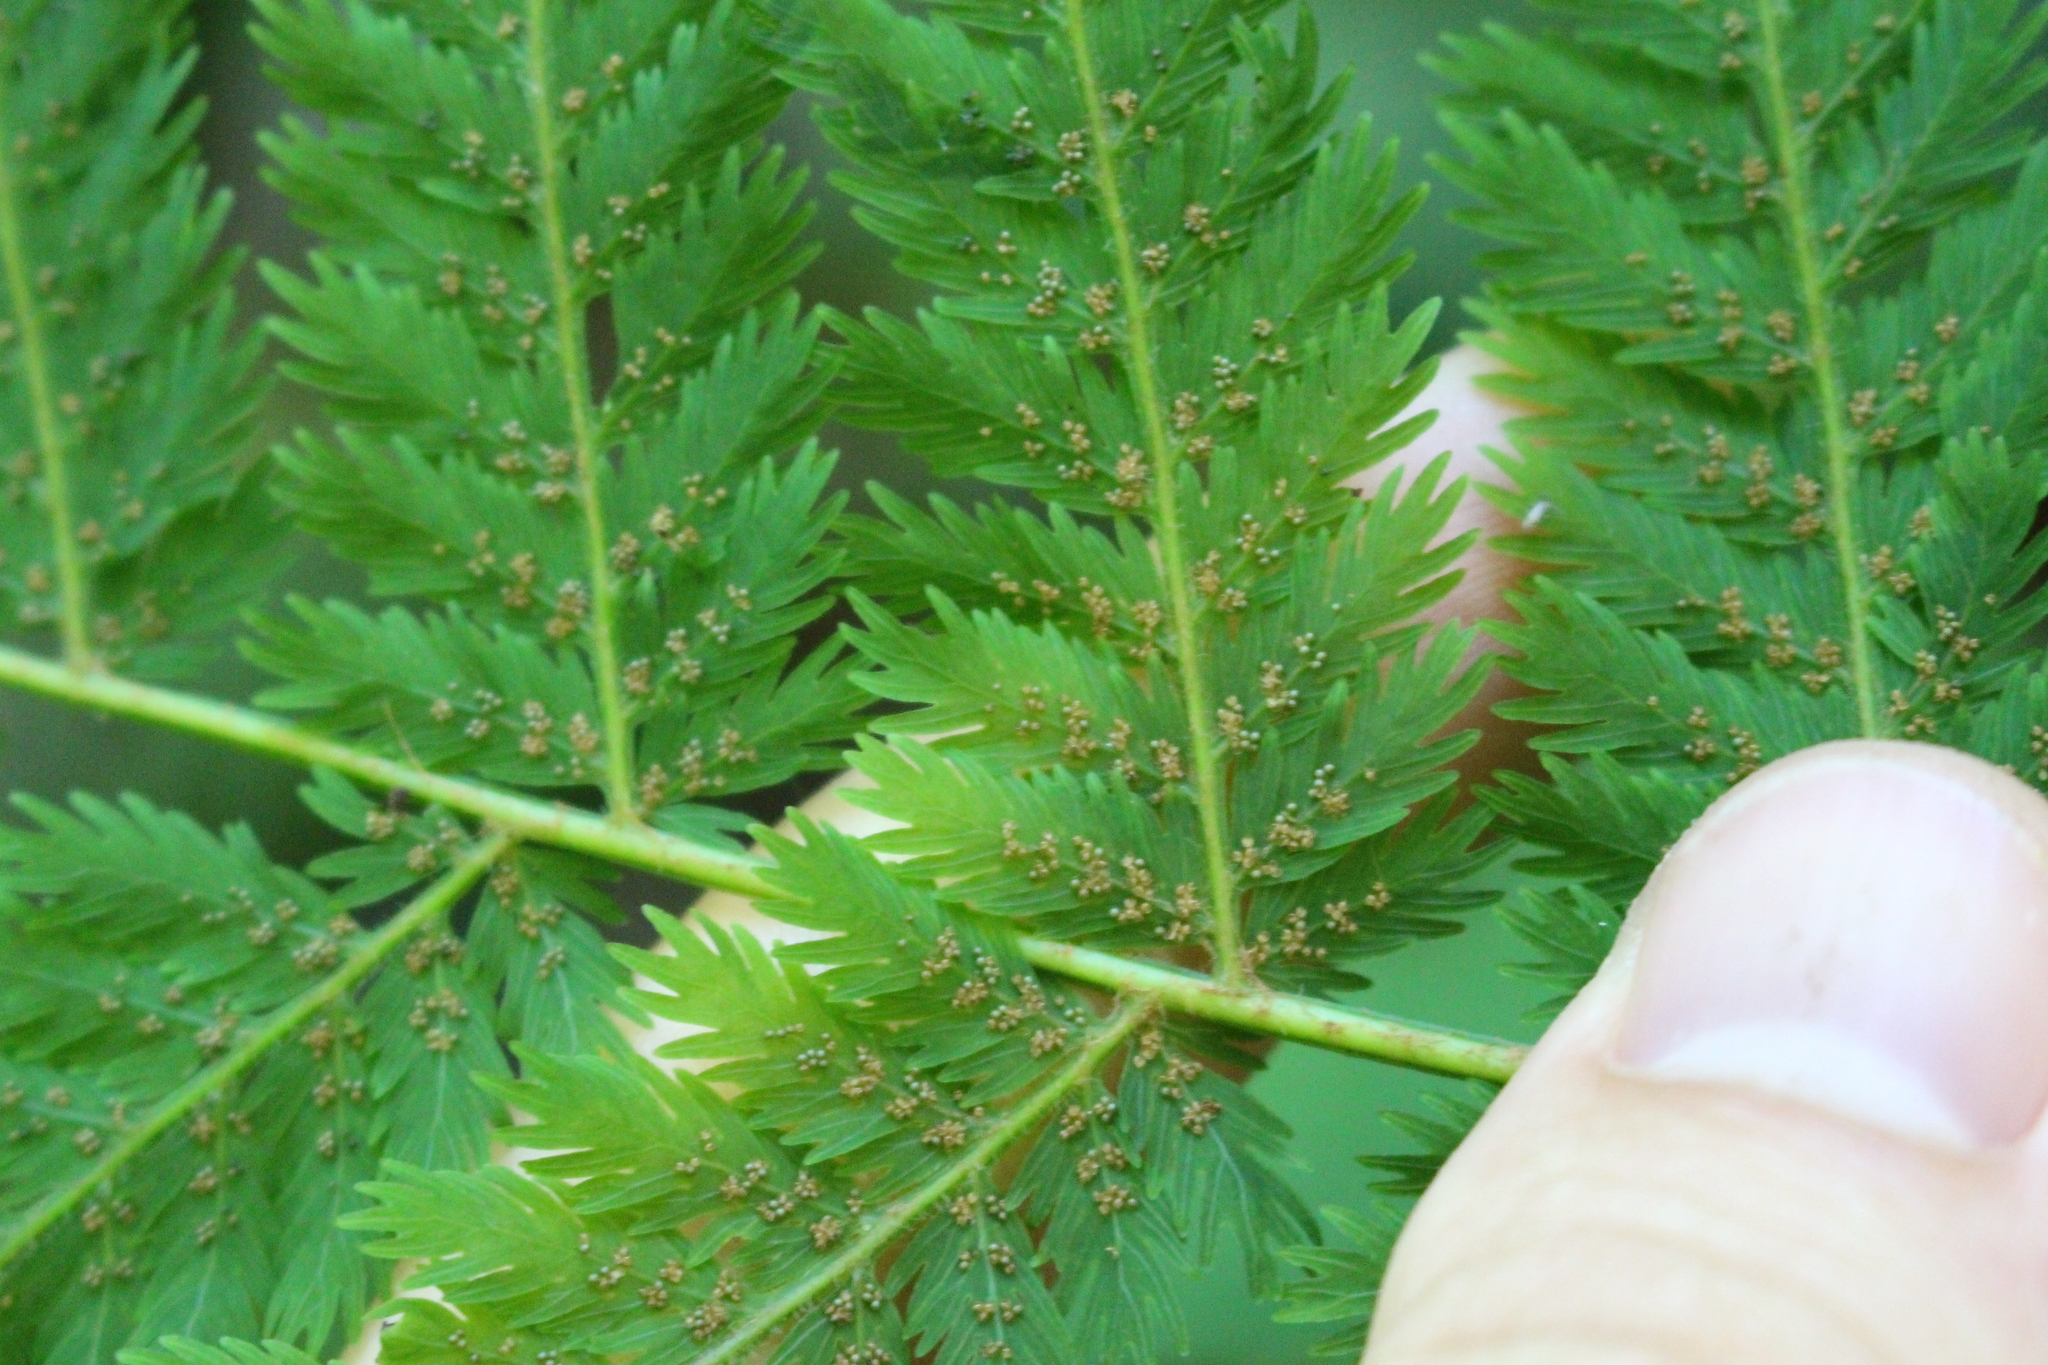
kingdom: Plantae
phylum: Tracheophyta
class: Polypodiopsida
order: Osmundales
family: Osmundaceae
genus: Leptopteris
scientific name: Leptopteris hymenophylloides
